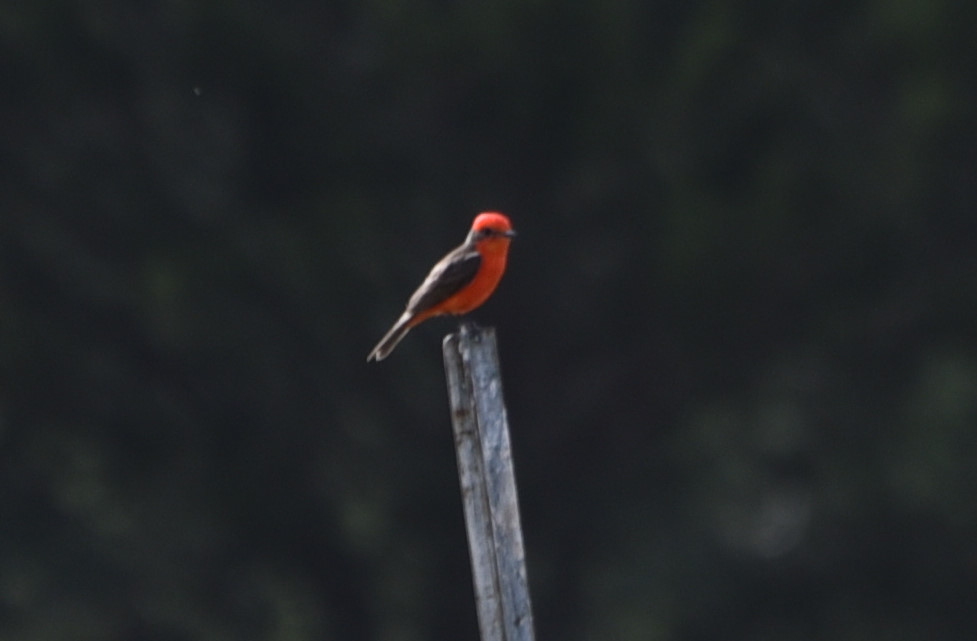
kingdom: Animalia
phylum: Chordata
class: Aves
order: Passeriformes
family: Tyrannidae
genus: Pyrocephalus
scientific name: Pyrocephalus rubinus
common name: Vermilion flycatcher
